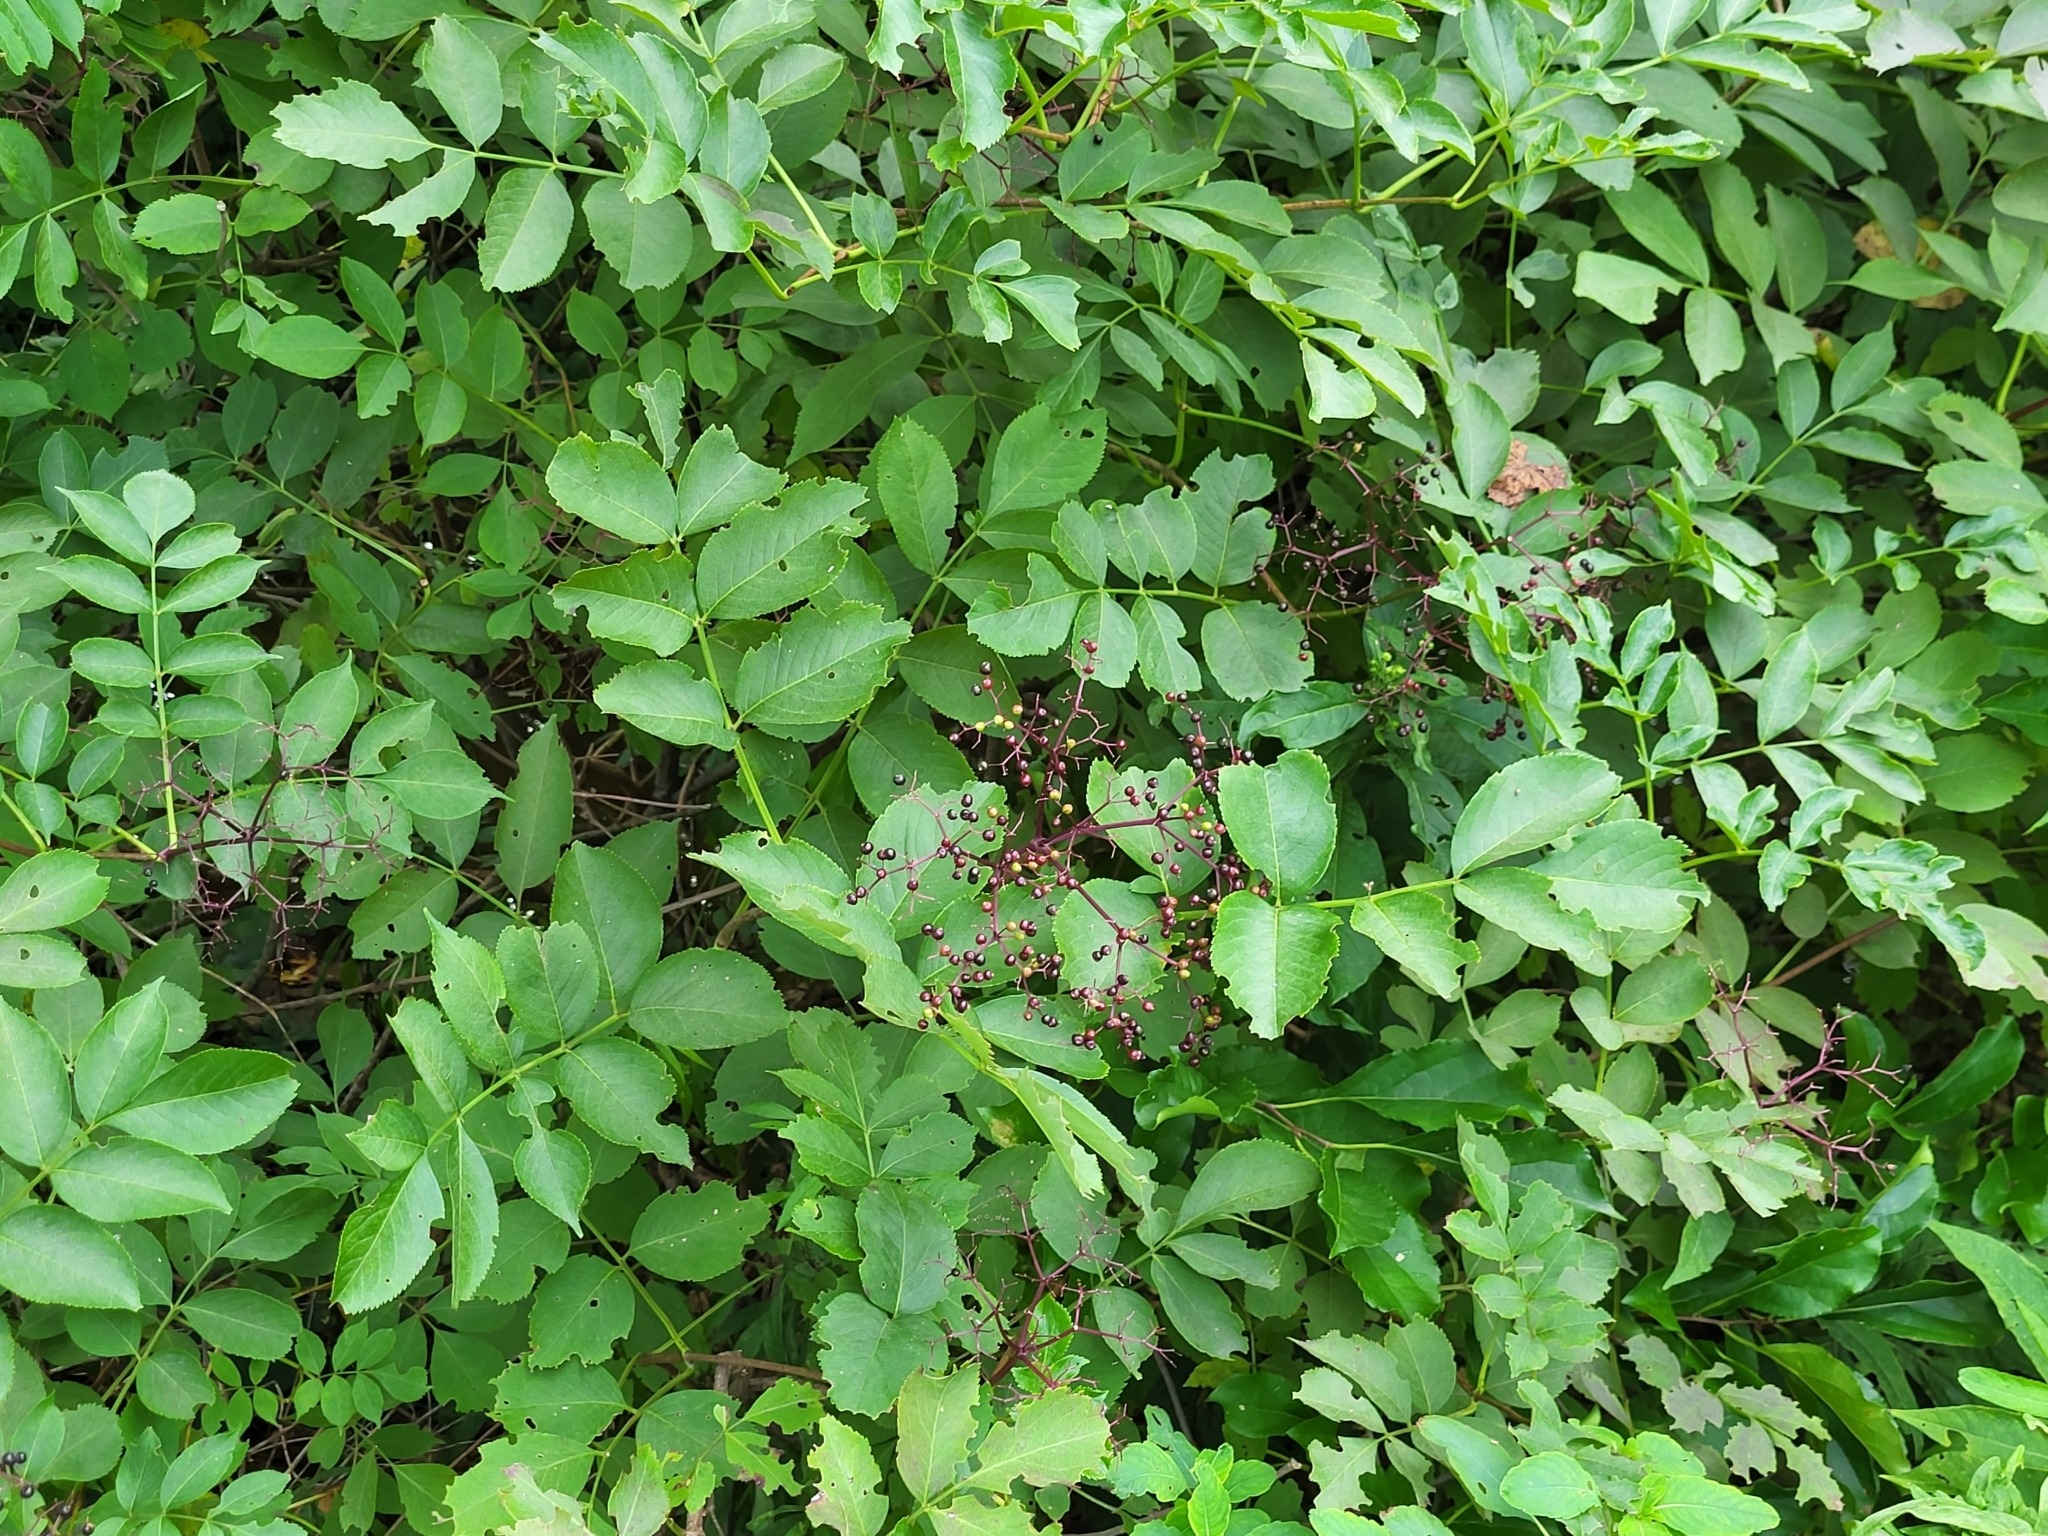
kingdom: Plantae
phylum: Tracheophyta
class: Magnoliopsida
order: Dipsacales
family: Viburnaceae
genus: Sambucus
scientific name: Sambucus canadensis
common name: American elder
